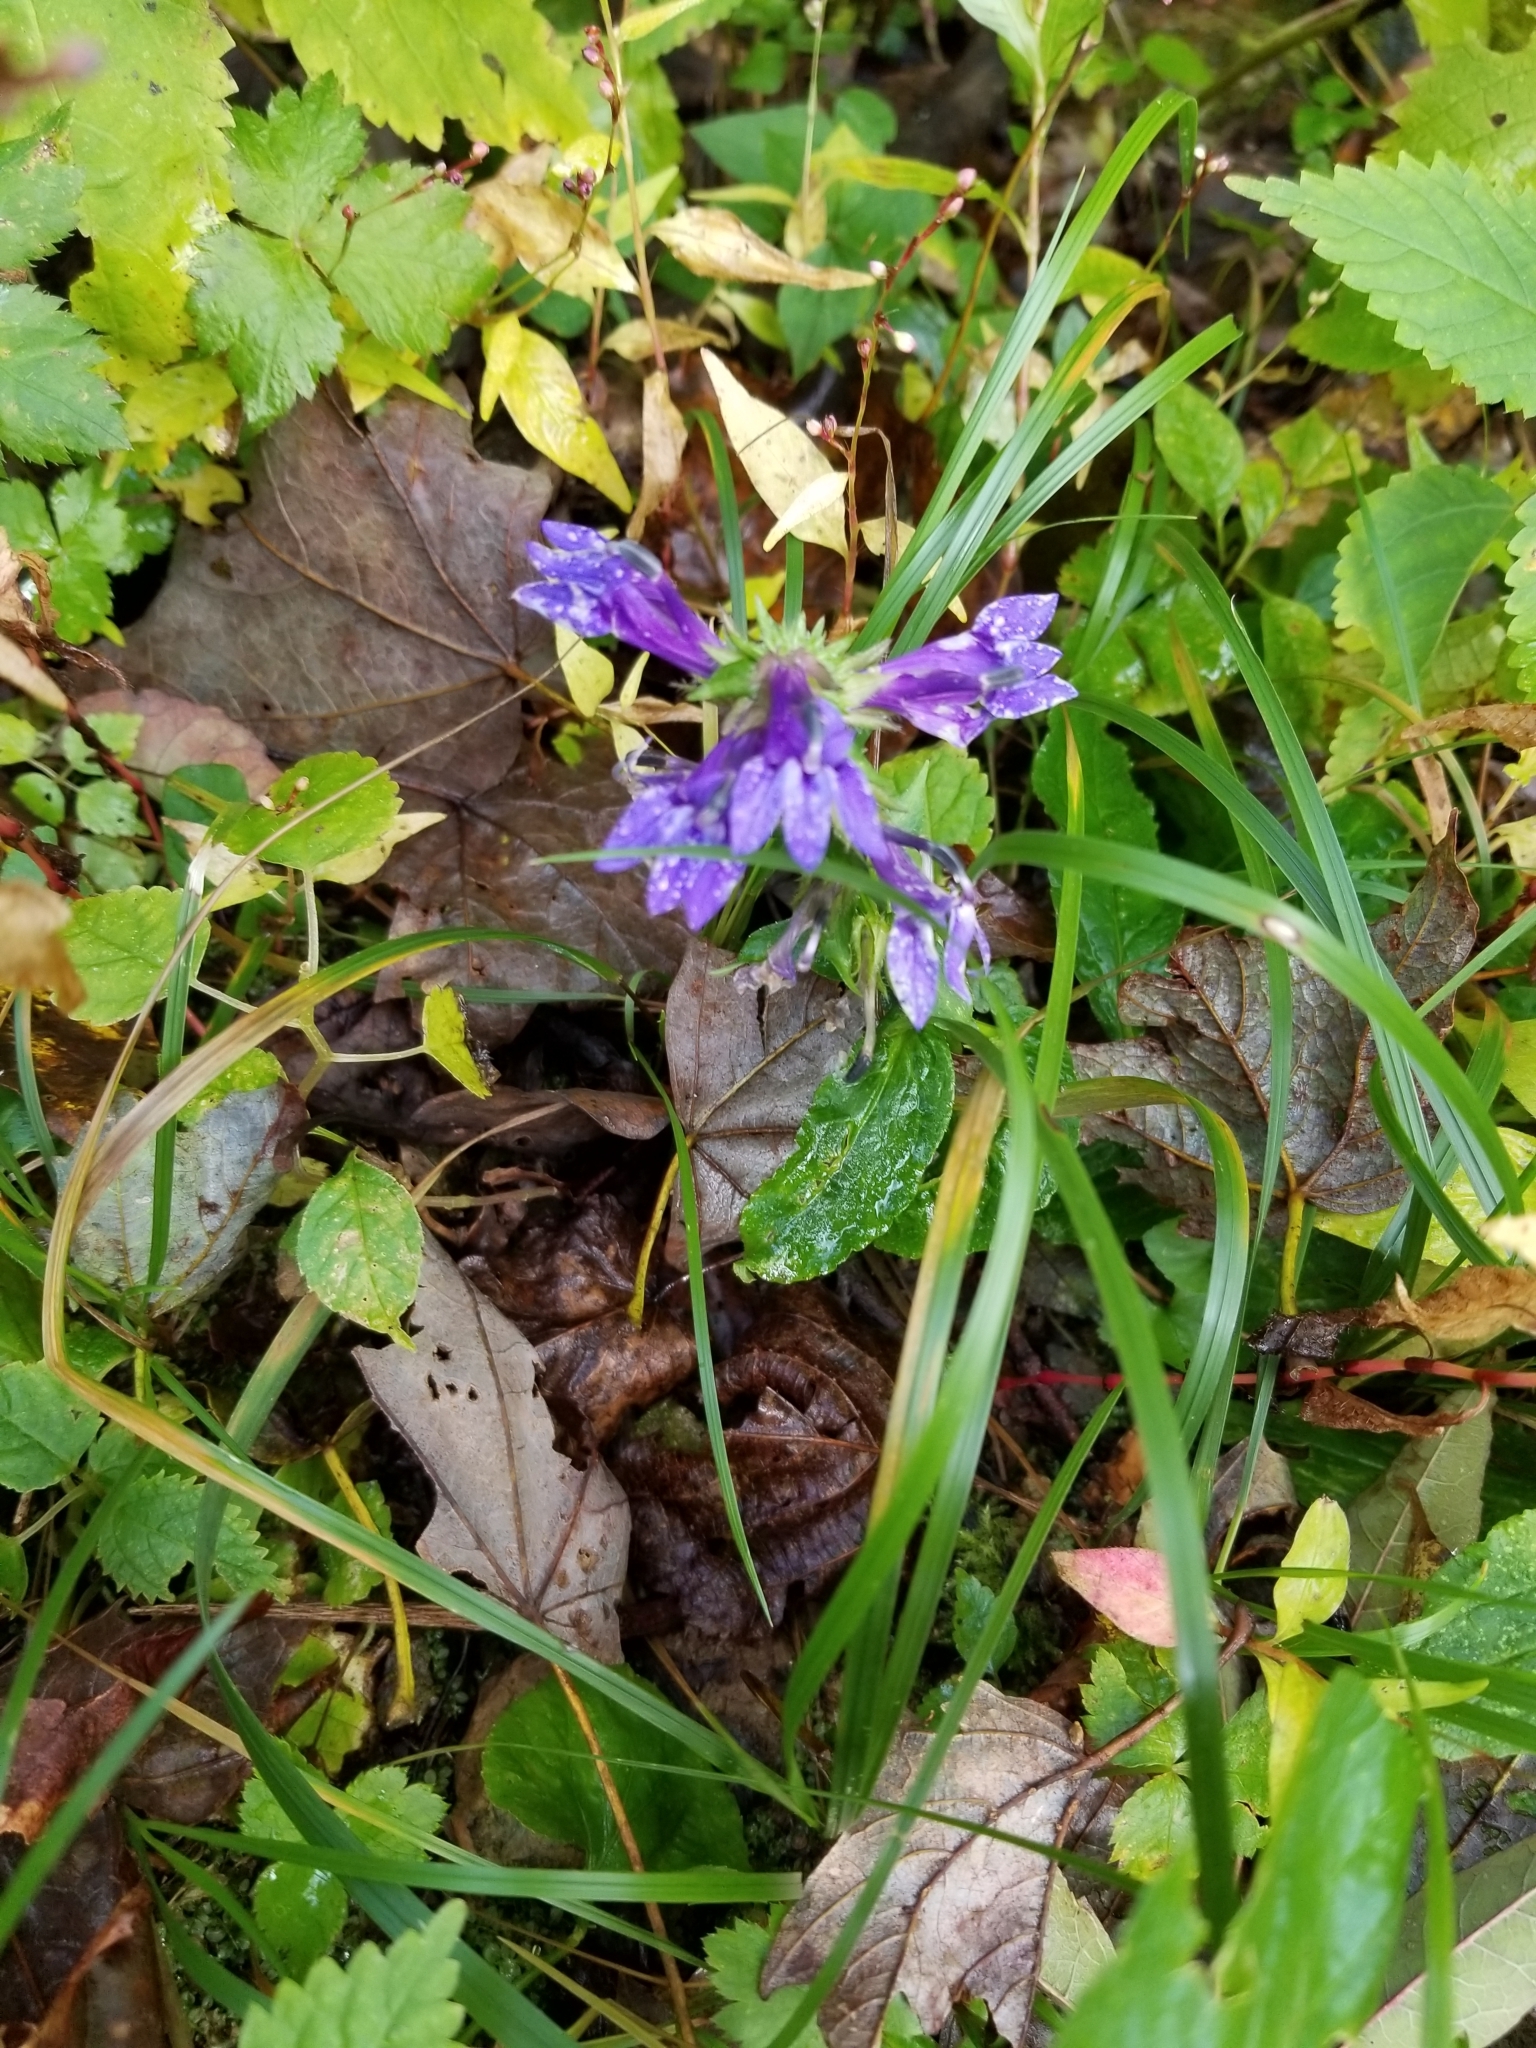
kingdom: Plantae
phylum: Tracheophyta
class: Magnoliopsida
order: Asterales
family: Campanulaceae
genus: Lobelia
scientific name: Lobelia siphilitica
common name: Great lobelia
